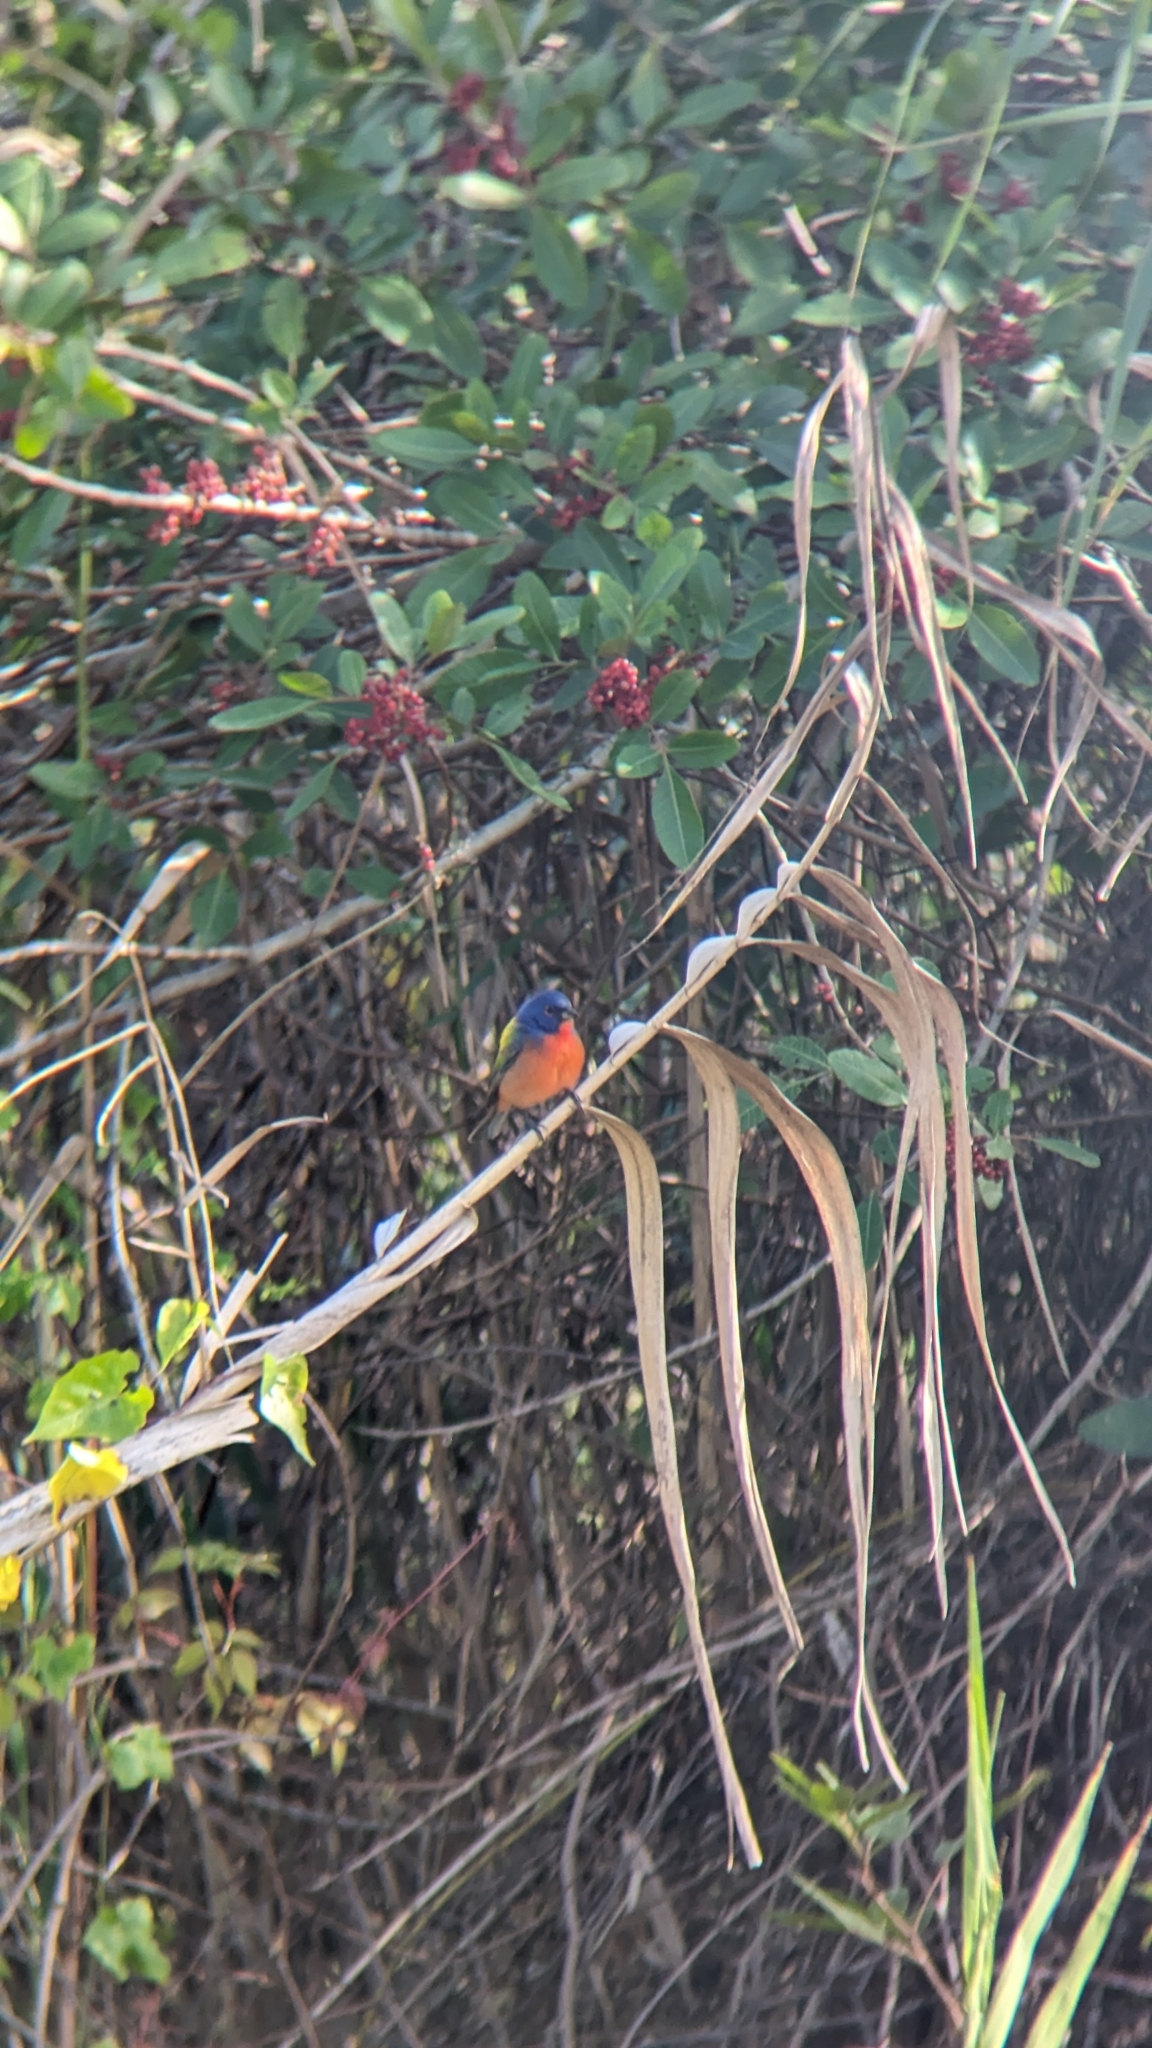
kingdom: Animalia
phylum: Chordata
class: Aves
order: Passeriformes
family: Cardinalidae
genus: Passerina
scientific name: Passerina ciris
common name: Painted bunting
